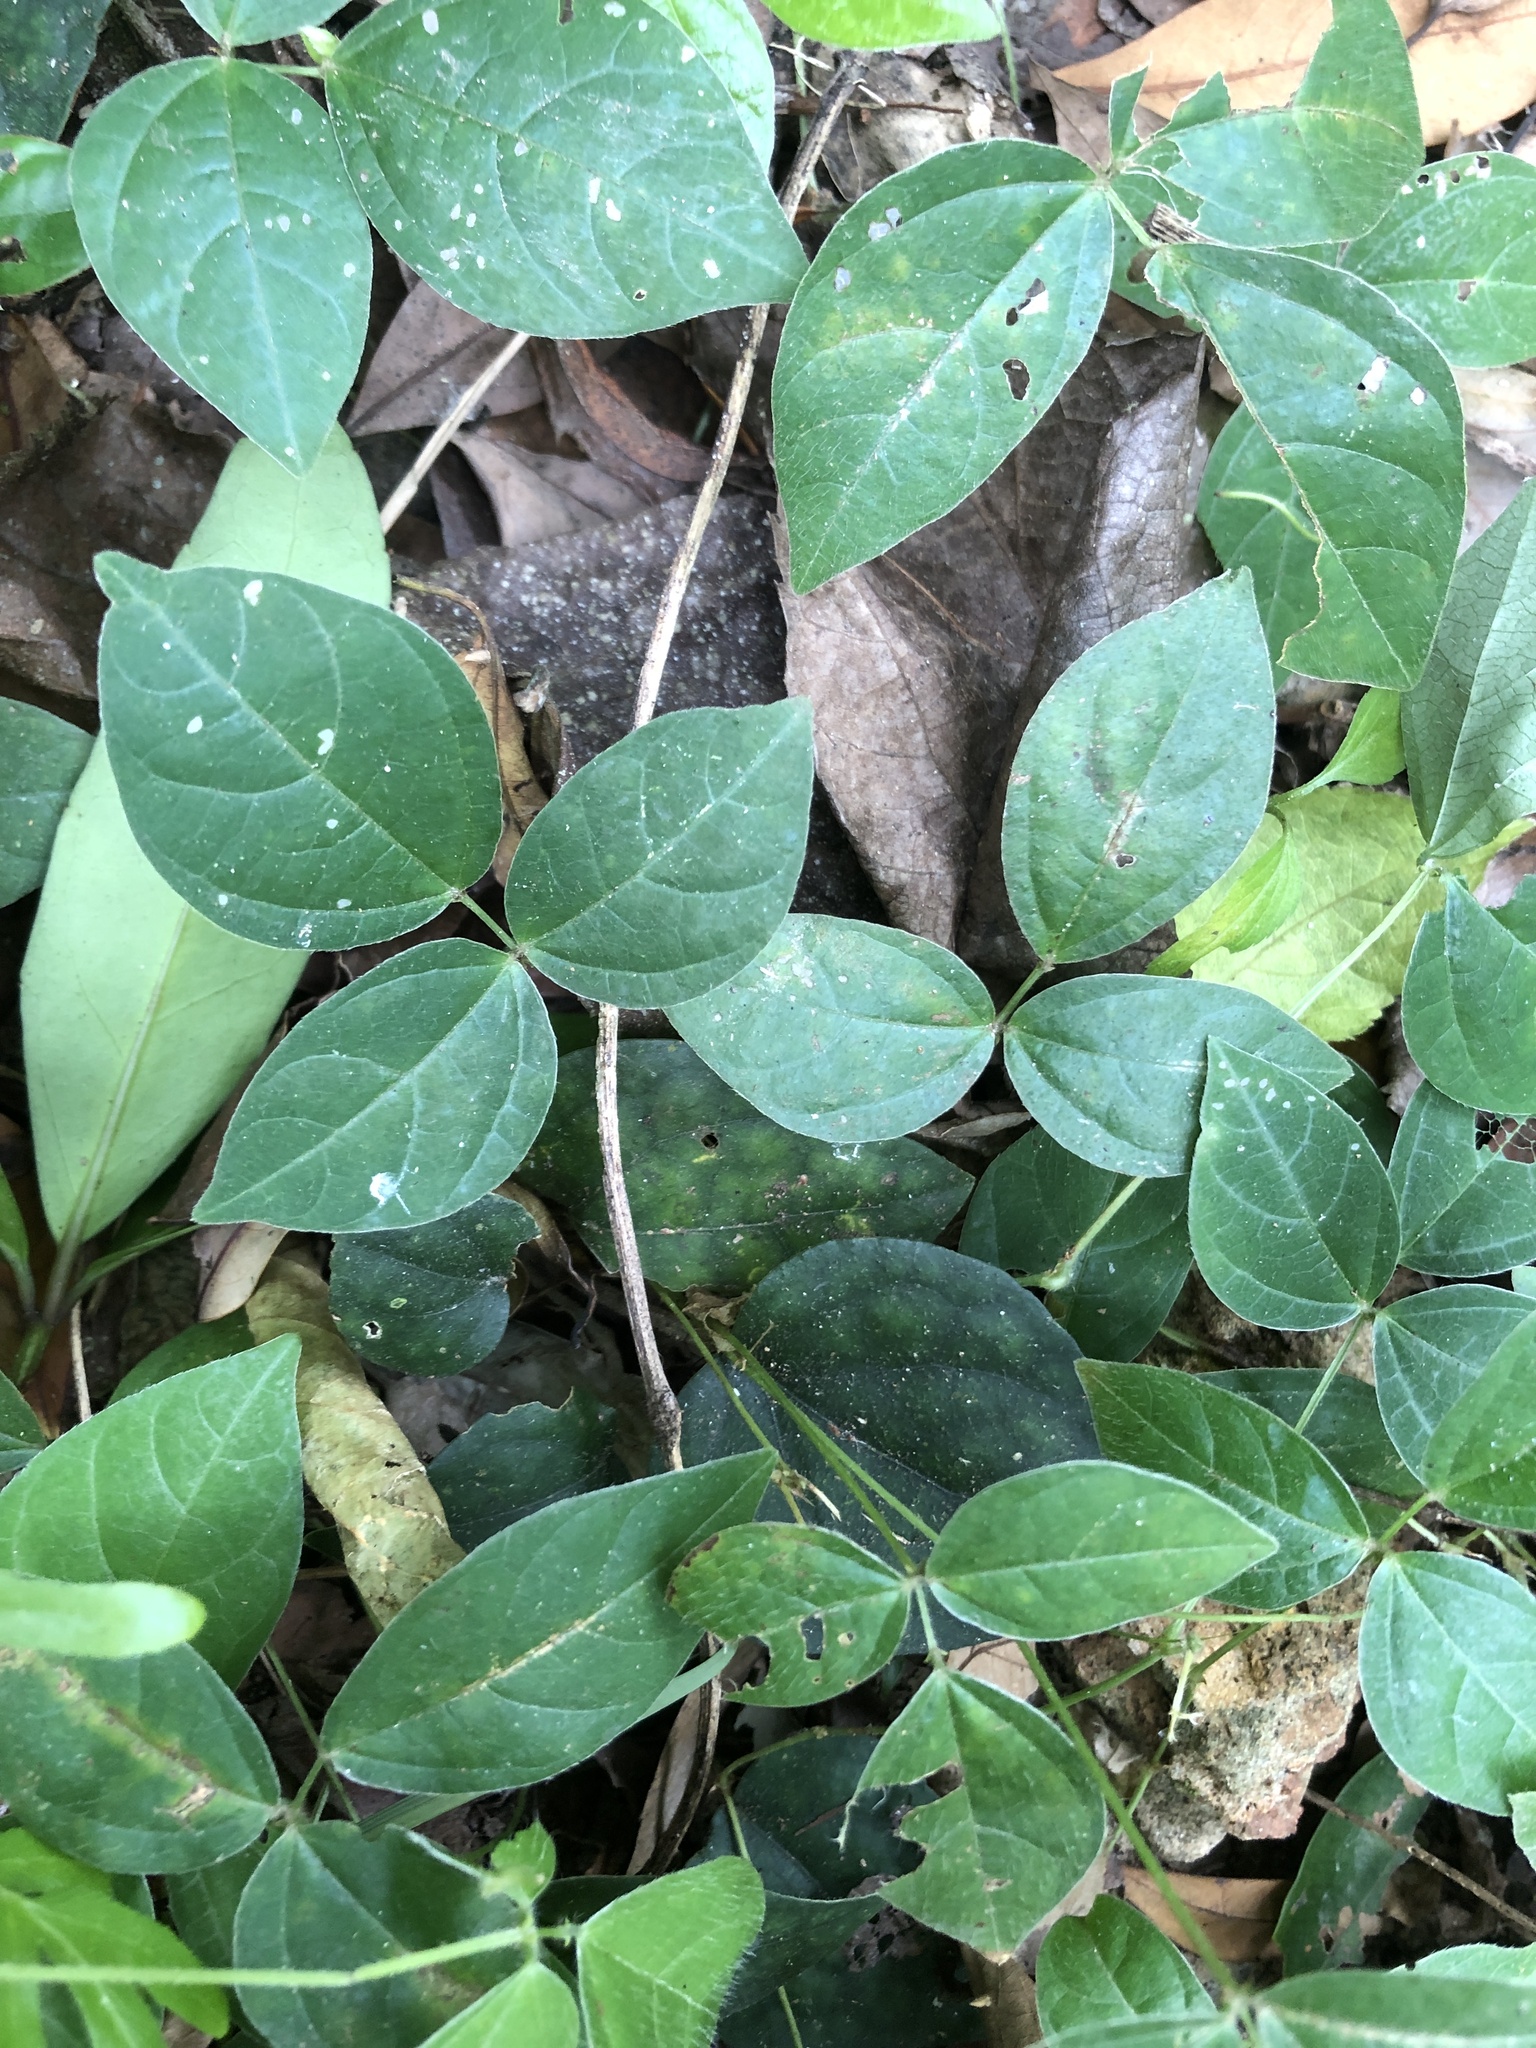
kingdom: Plantae
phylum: Tracheophyta
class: Magnoliopsida
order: Fabales
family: Fabaceae
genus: Vigna
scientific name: Vigna hosei
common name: Sarawak-bean
